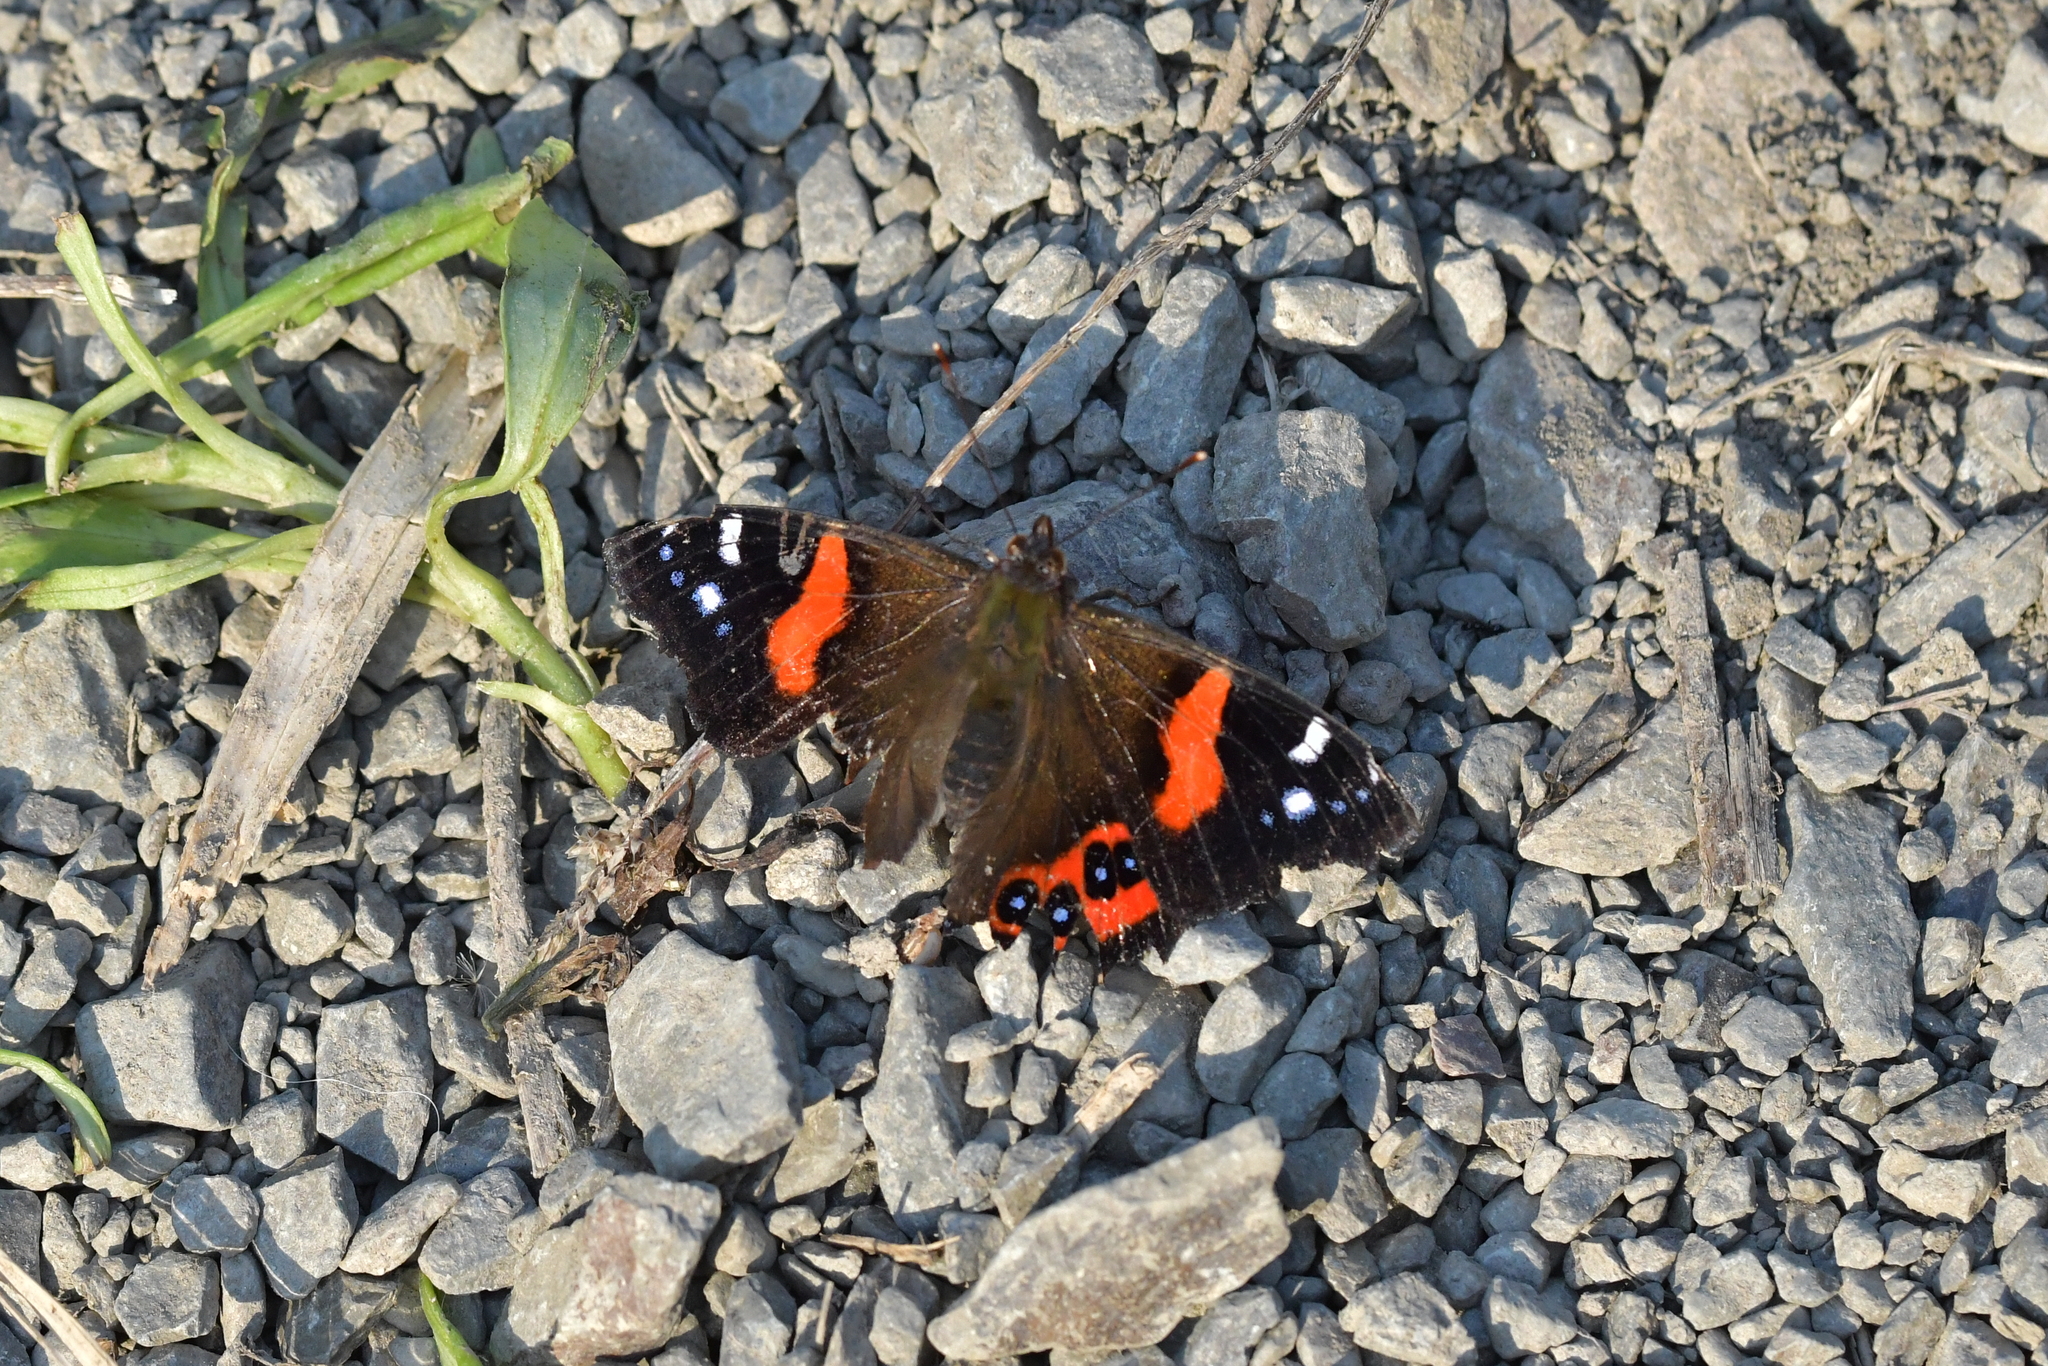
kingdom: Animalia
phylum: Arthropoda
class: Insecta
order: Lepidoptera
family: Nymphalidae
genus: Vanessa
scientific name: Vanessa gonerilla
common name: New zealand red admiral
